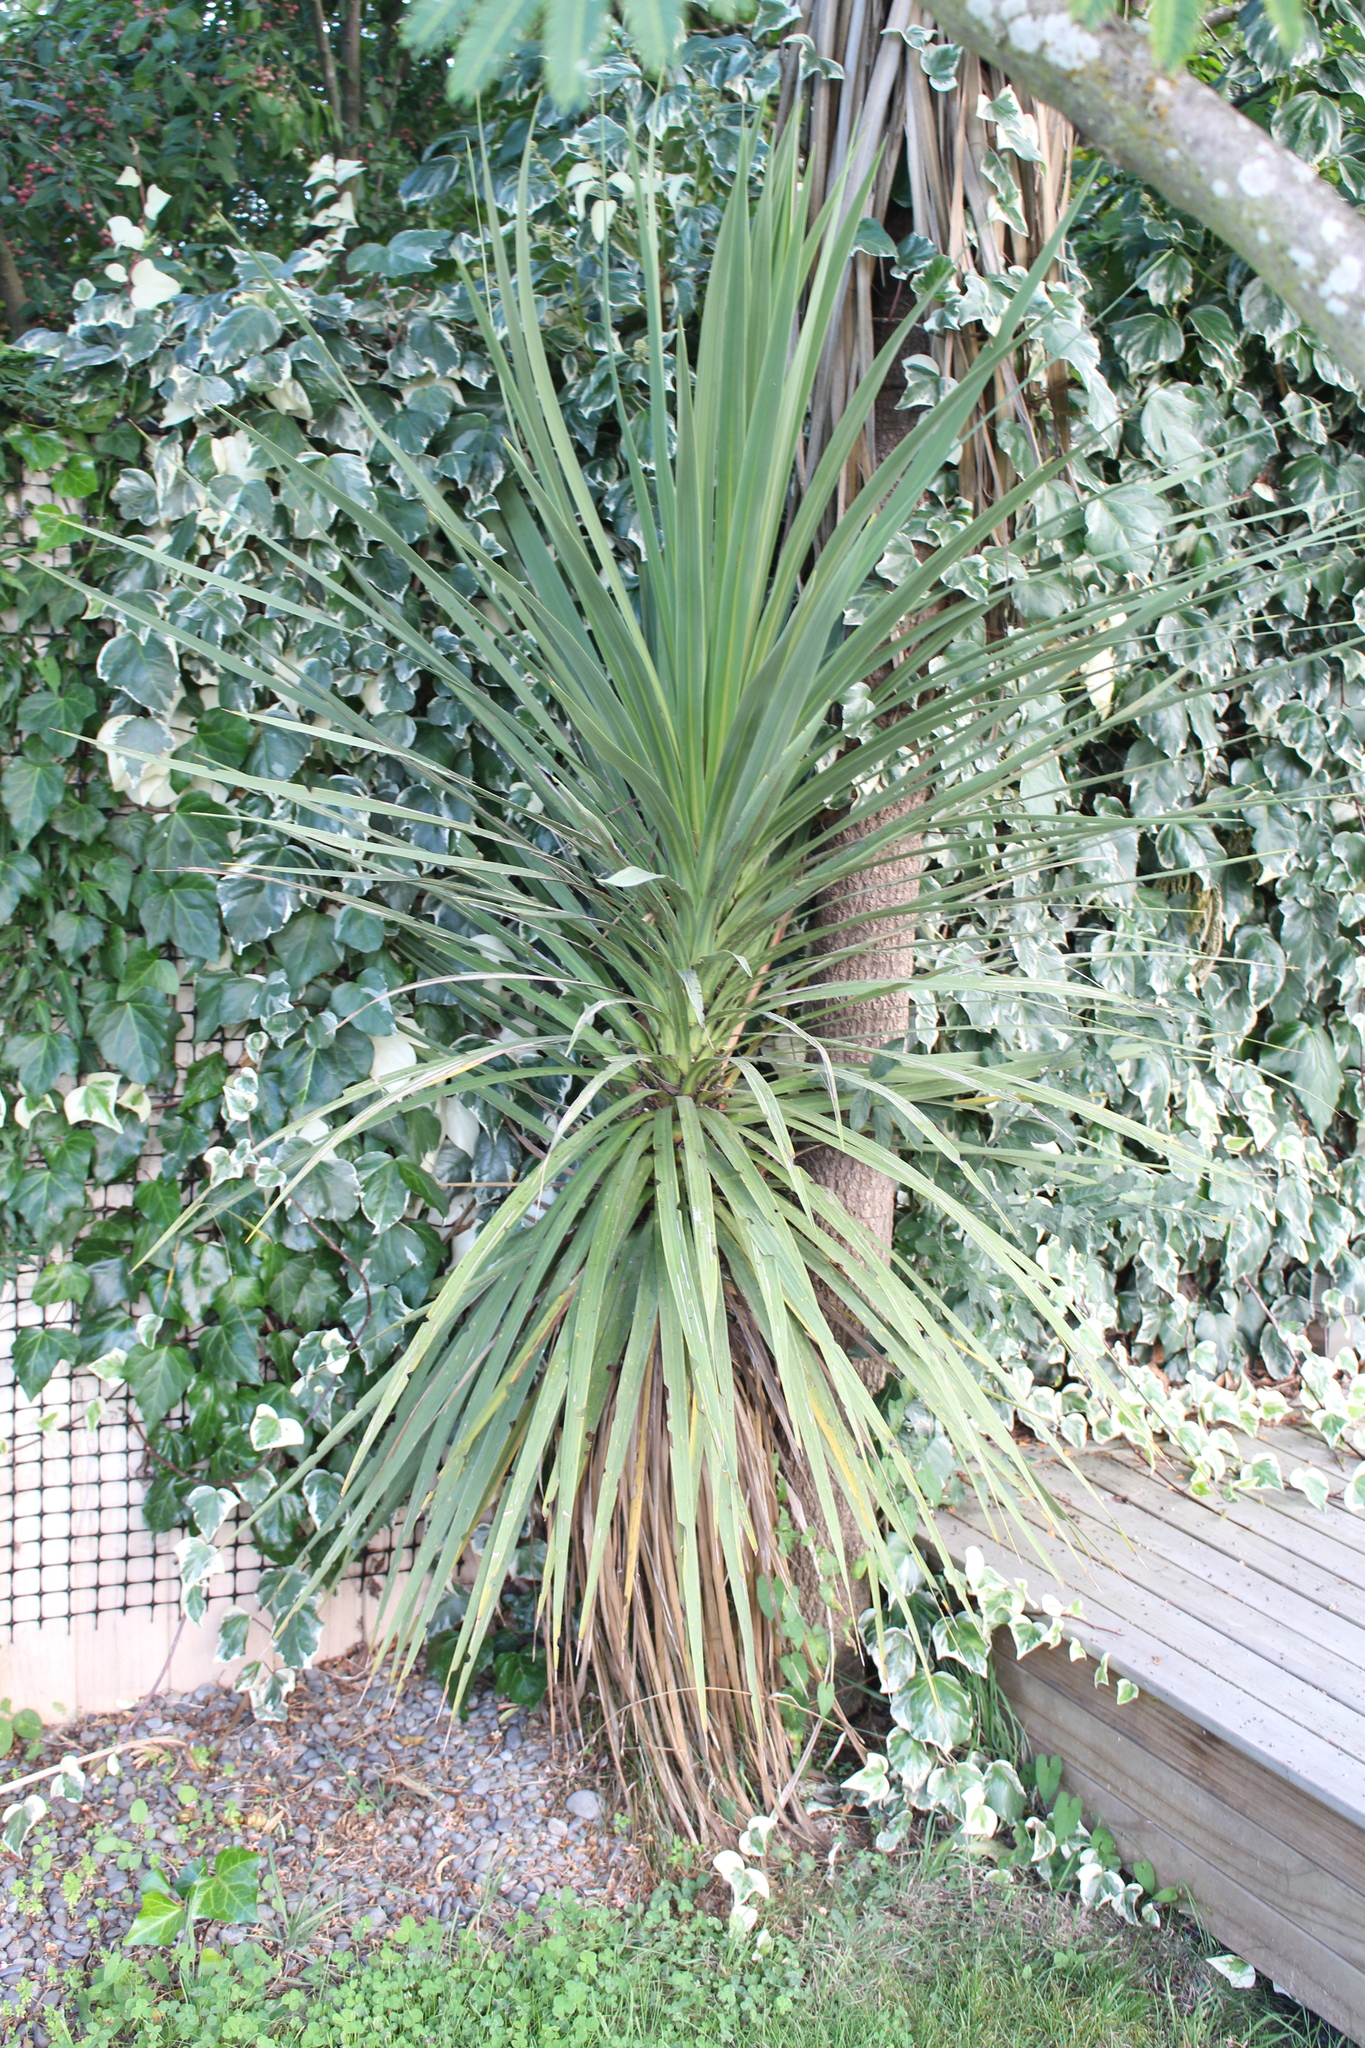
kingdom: Plantae
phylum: Tracheophyta
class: Liliopsida
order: Asparagales
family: Asparagaceae
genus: Cordyline
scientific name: Cordyline australis
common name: Cabbage-palm
